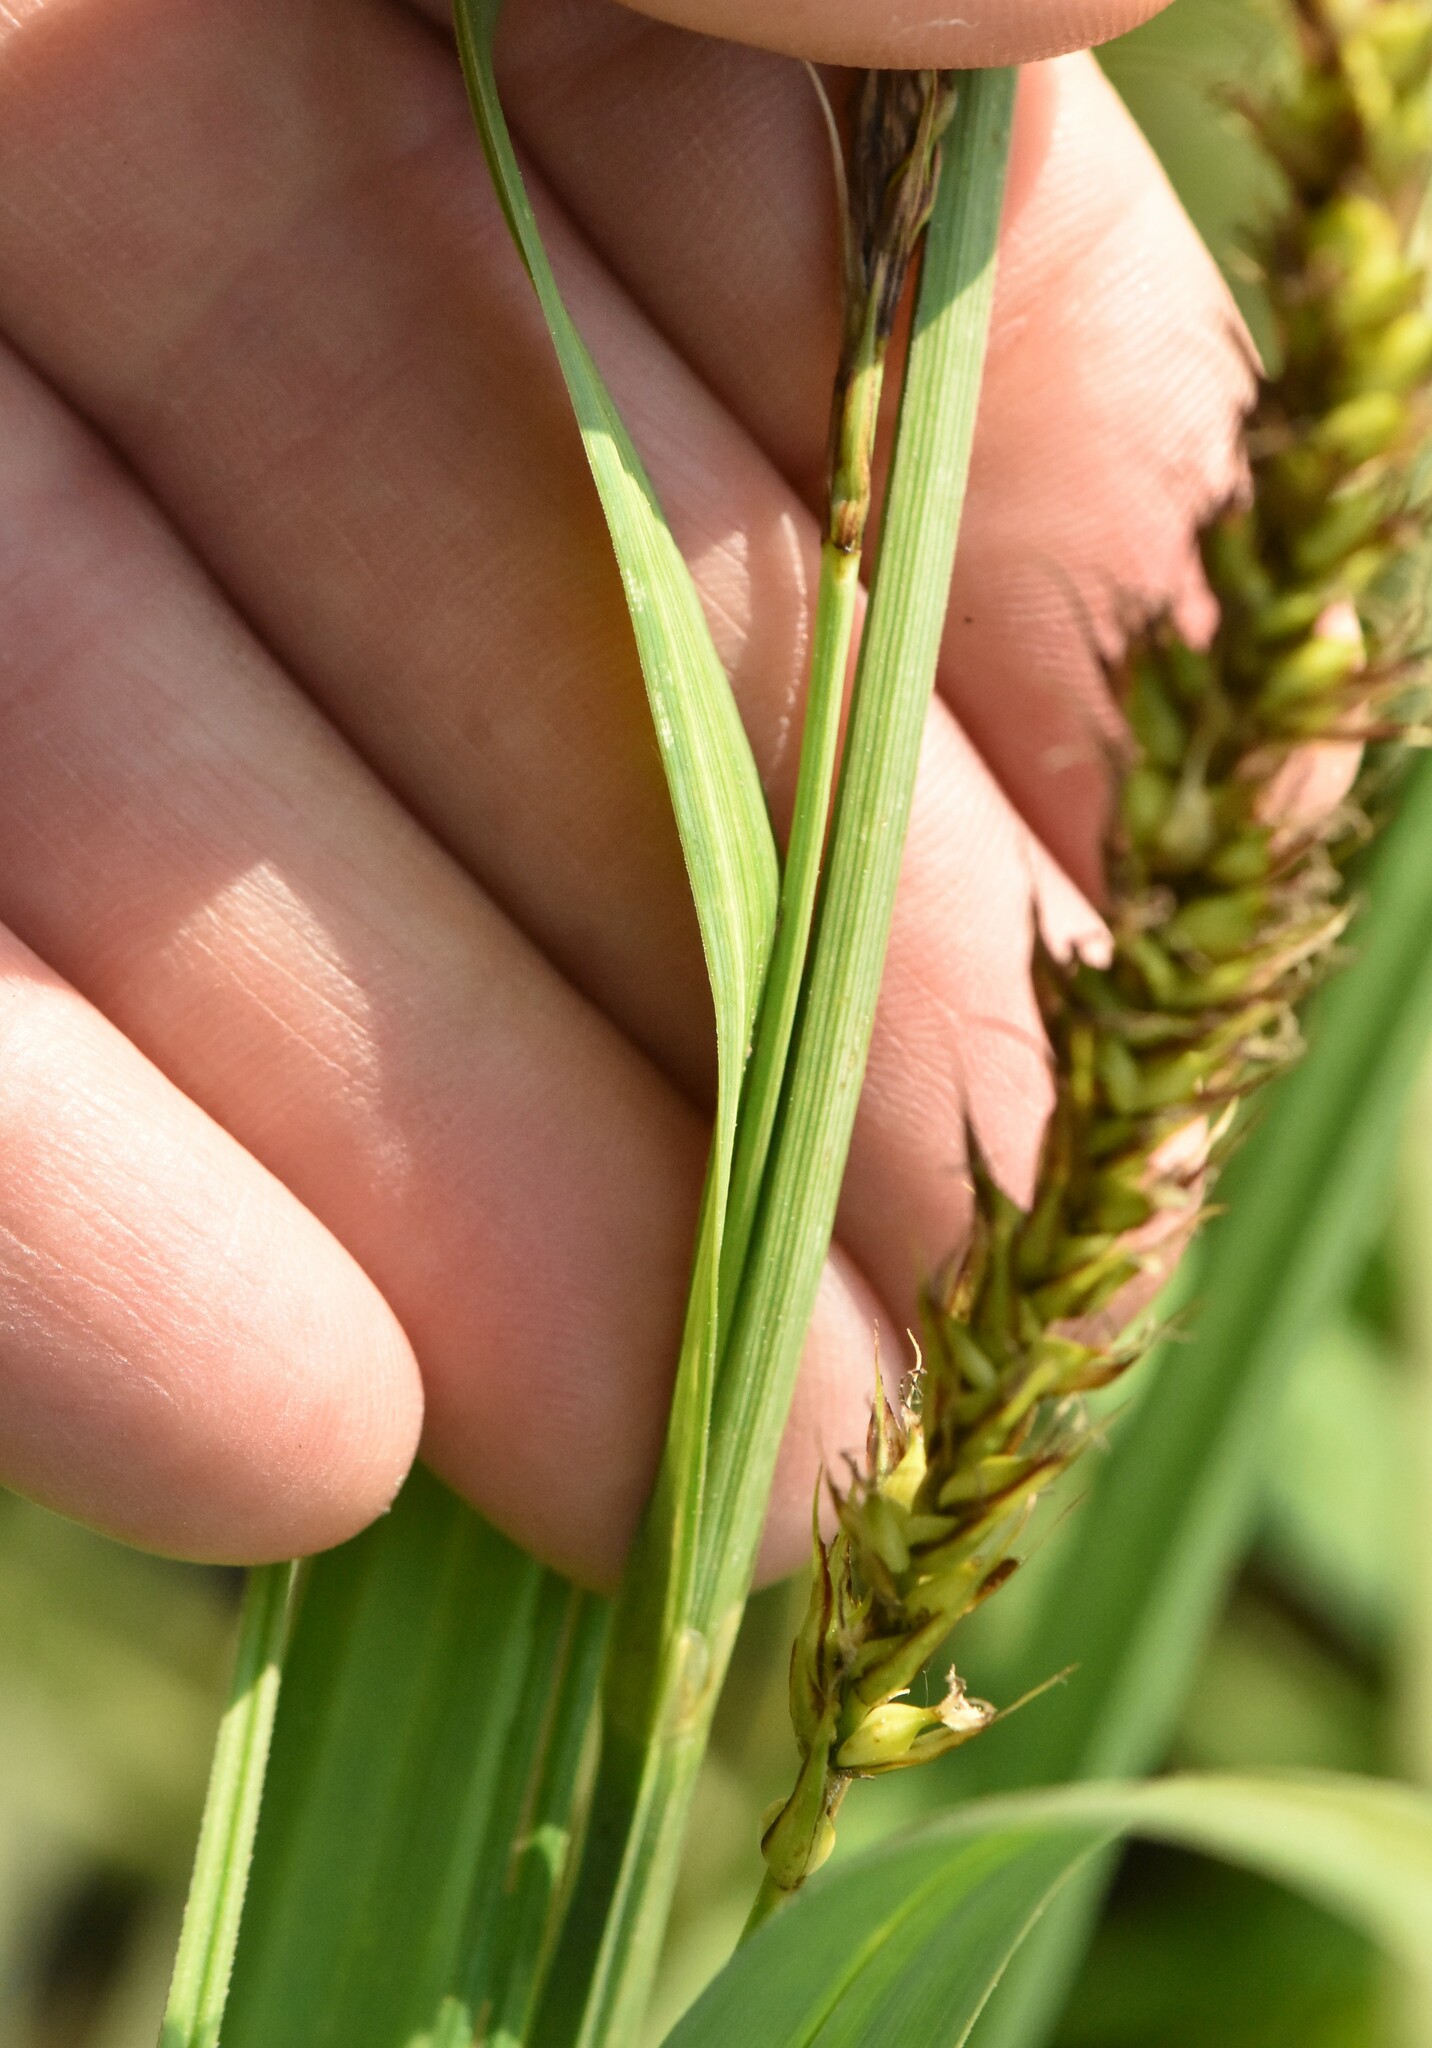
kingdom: Plantae
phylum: Tracheophyta
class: Liliopsida
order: Poales
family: Cyperaceae
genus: Carex
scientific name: Carex riparia
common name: Greater pond-sedge
